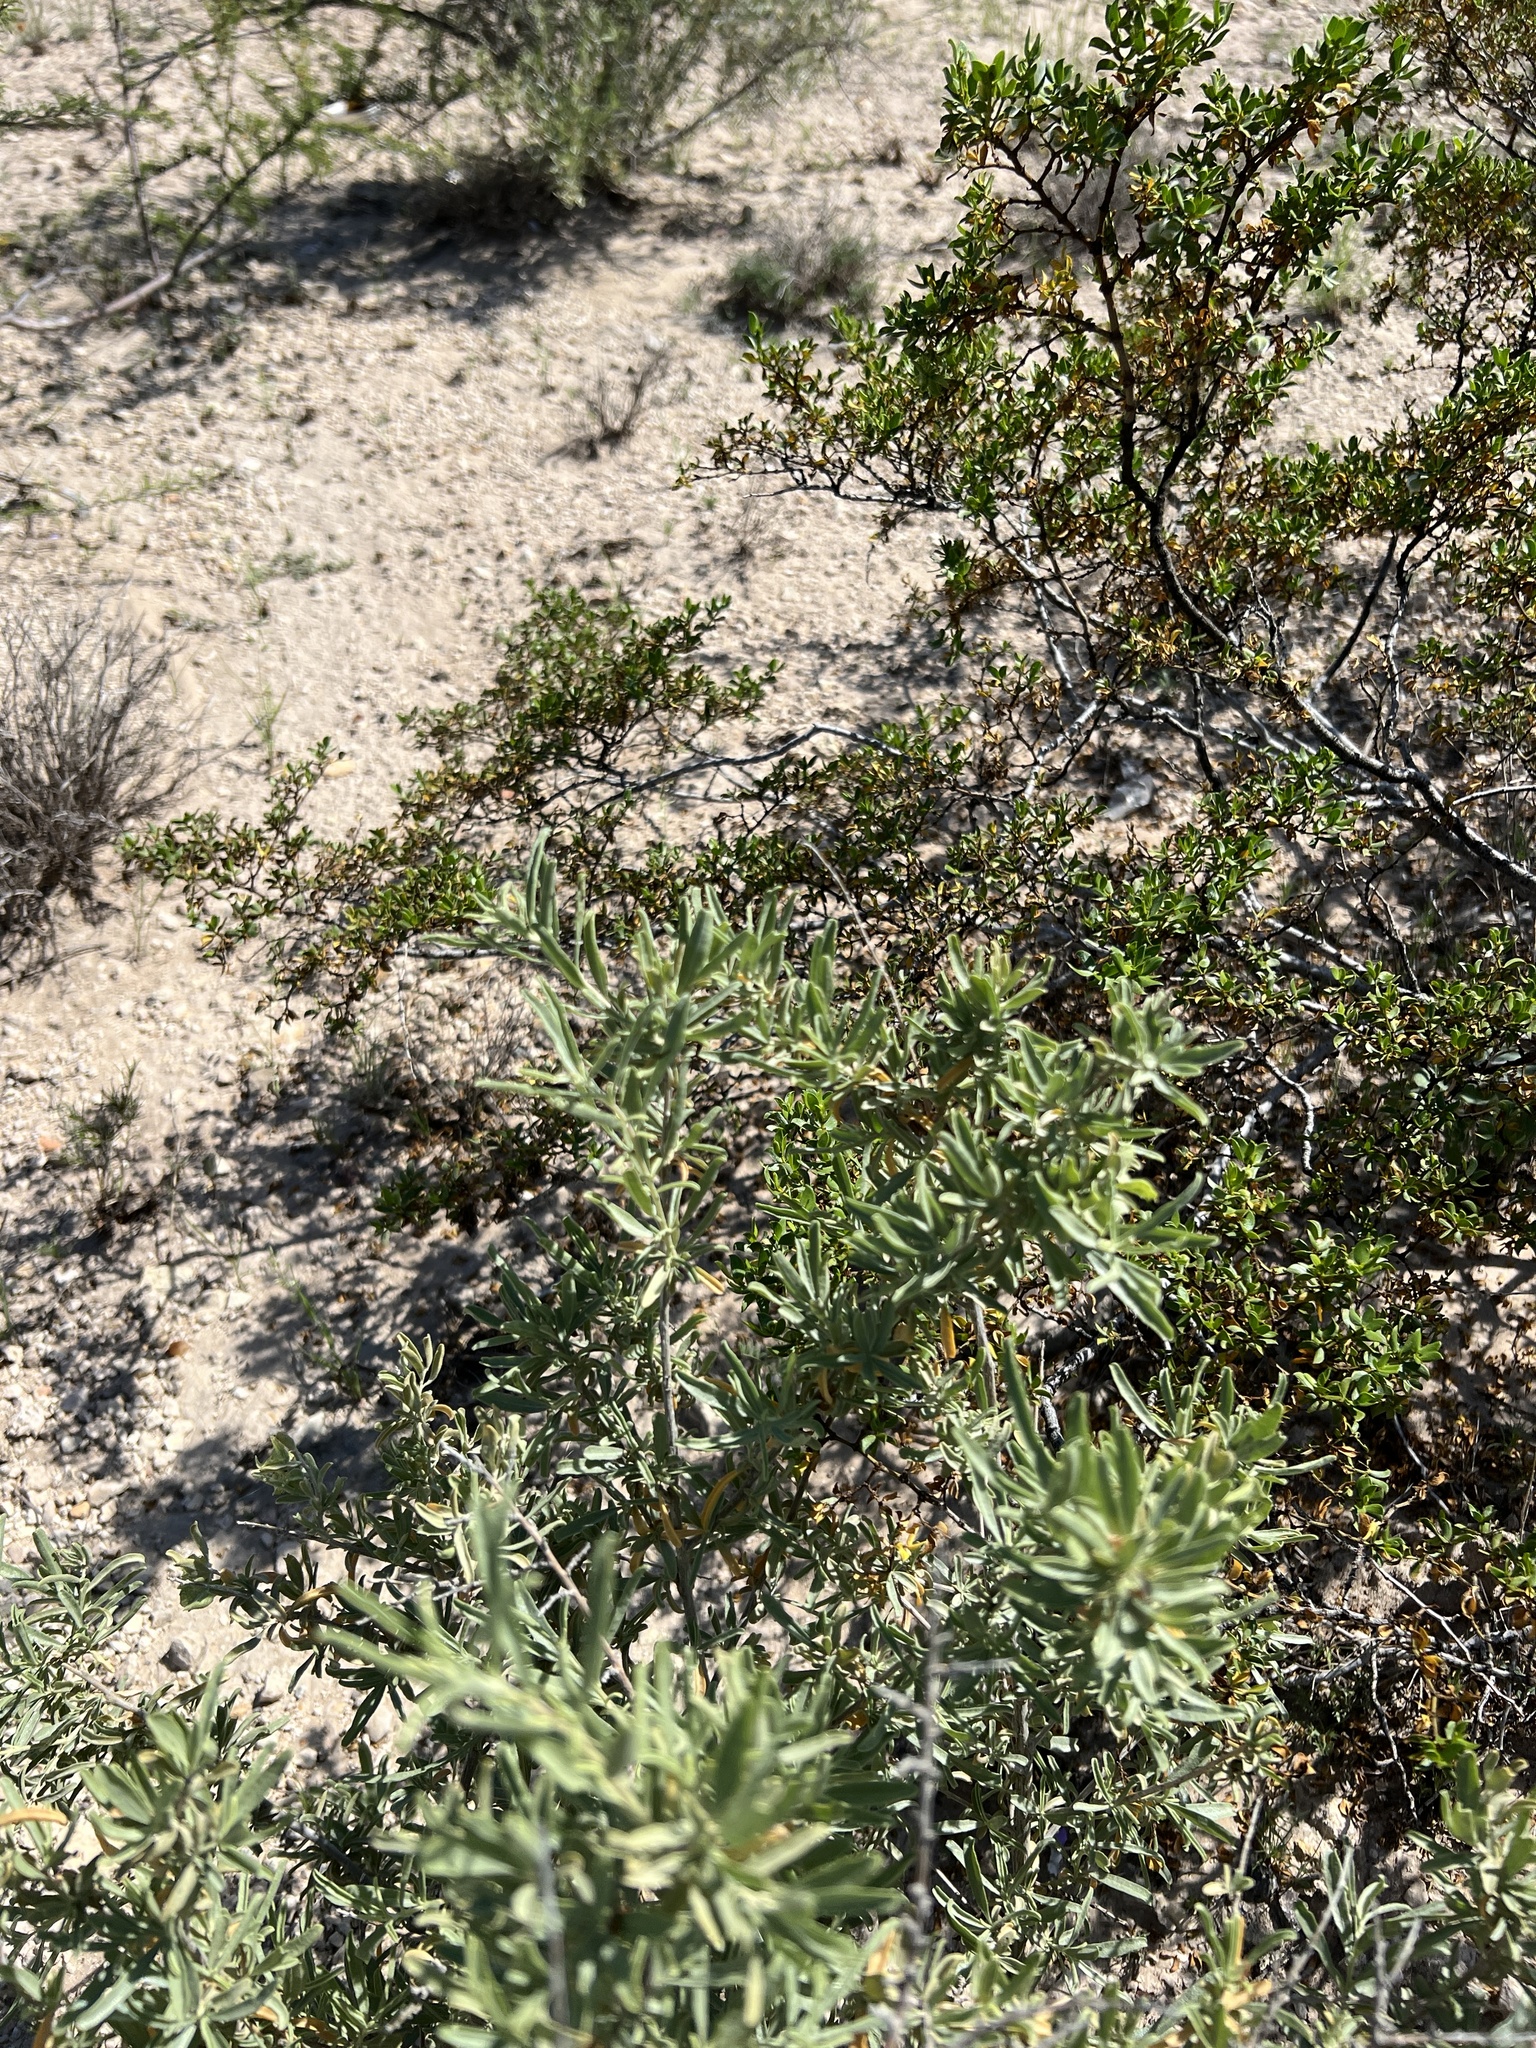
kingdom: Plantae
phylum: Tracheophyta
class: Magnoliopsida
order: Caryophyllales
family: Amaranthaceae
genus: Atriplex
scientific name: Atriplex canescens
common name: Four-wing saltbush
